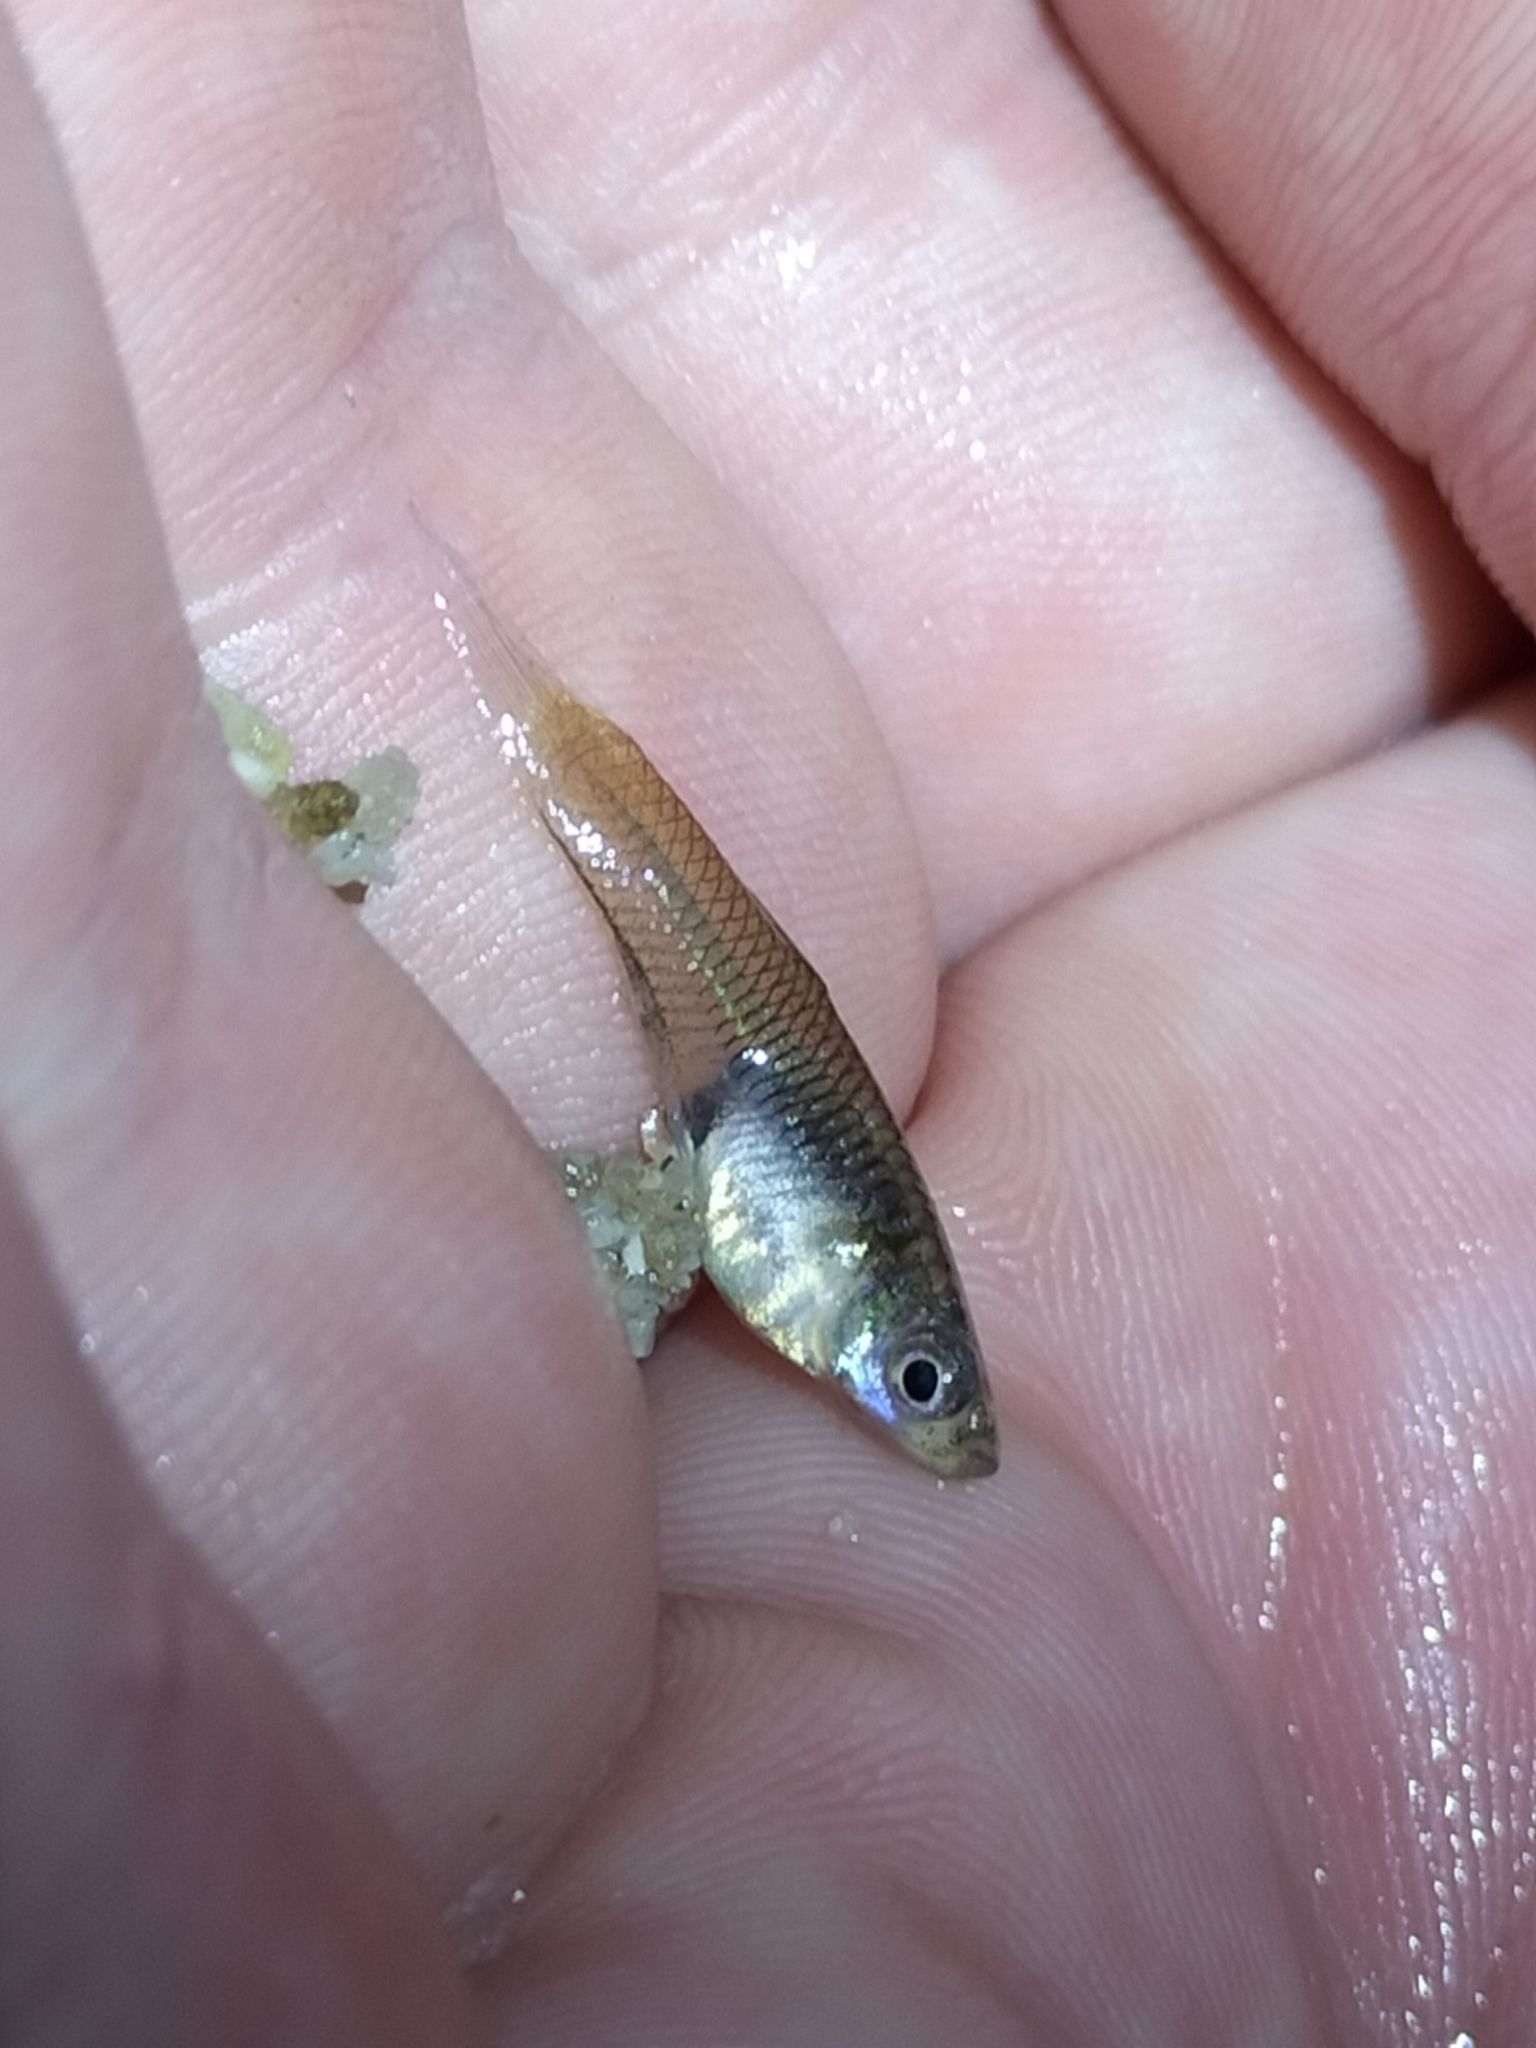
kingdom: Animalia
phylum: Chordata
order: Cyprinodontiformes
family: Poeciliidae
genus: Poecilia
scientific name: Poecilia reticulata
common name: Guppy
